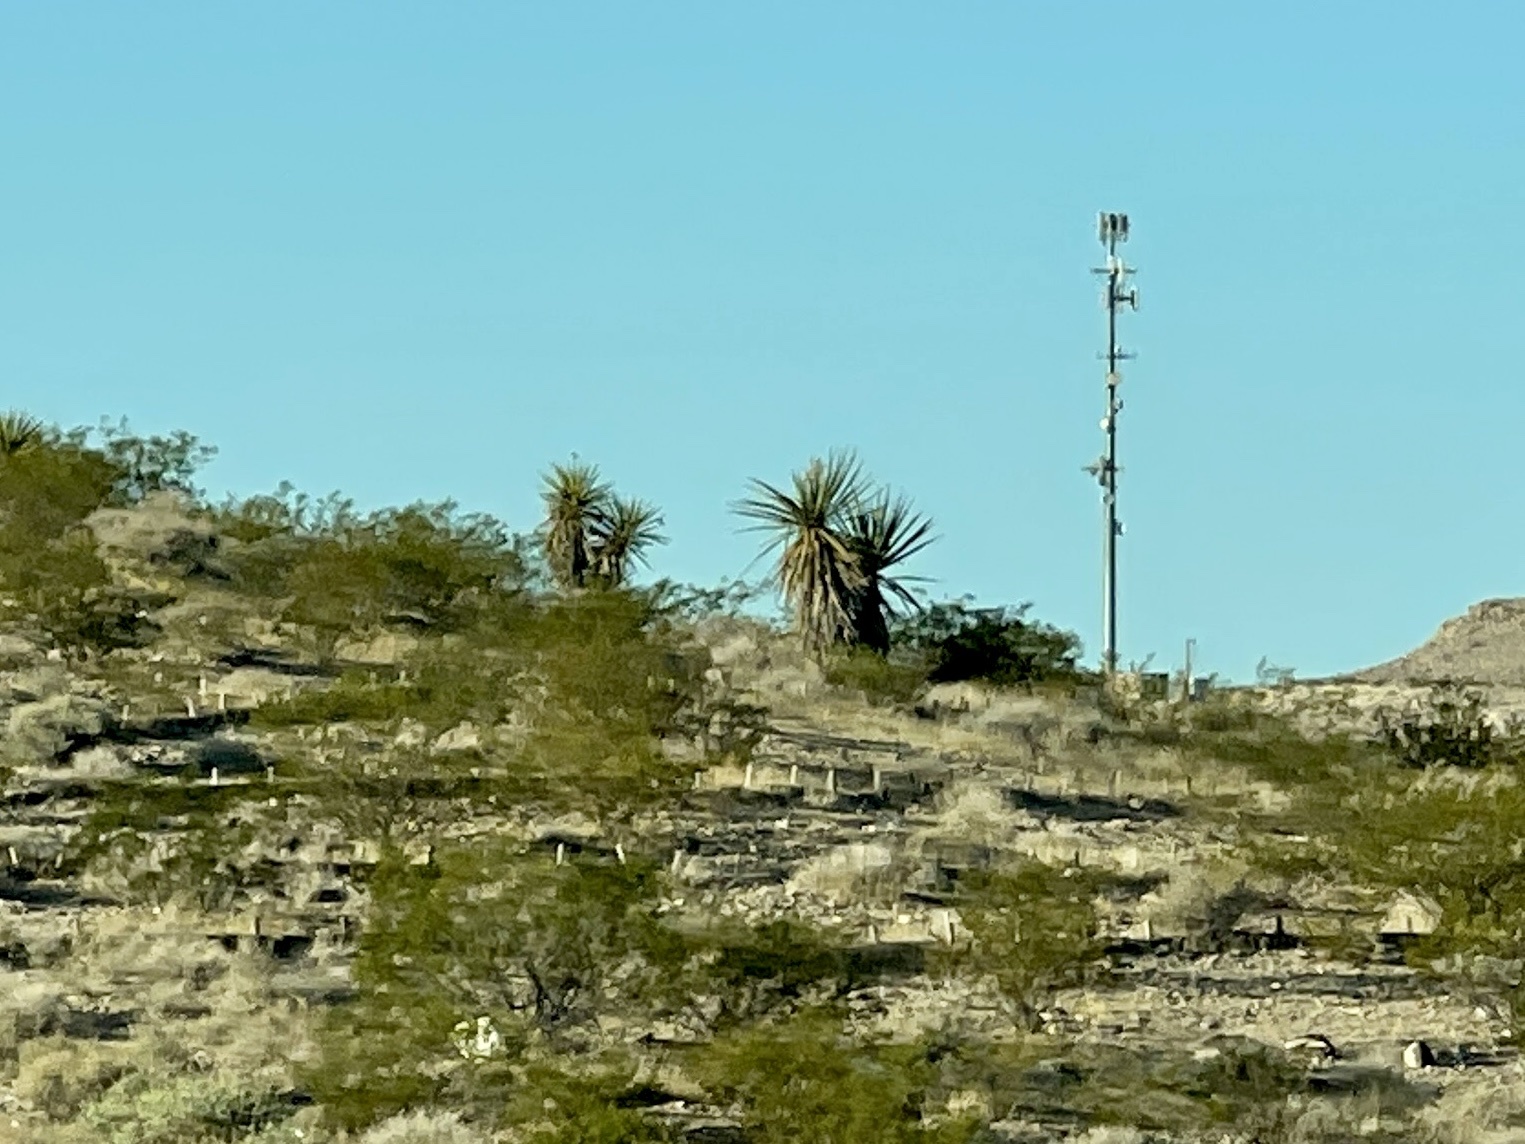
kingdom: Plantae
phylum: Tracheophyta
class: Liliopsida
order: Asparagales
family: Asparagaceae
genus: Yucca
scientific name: Yucca schidigera
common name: Mojave yucca
